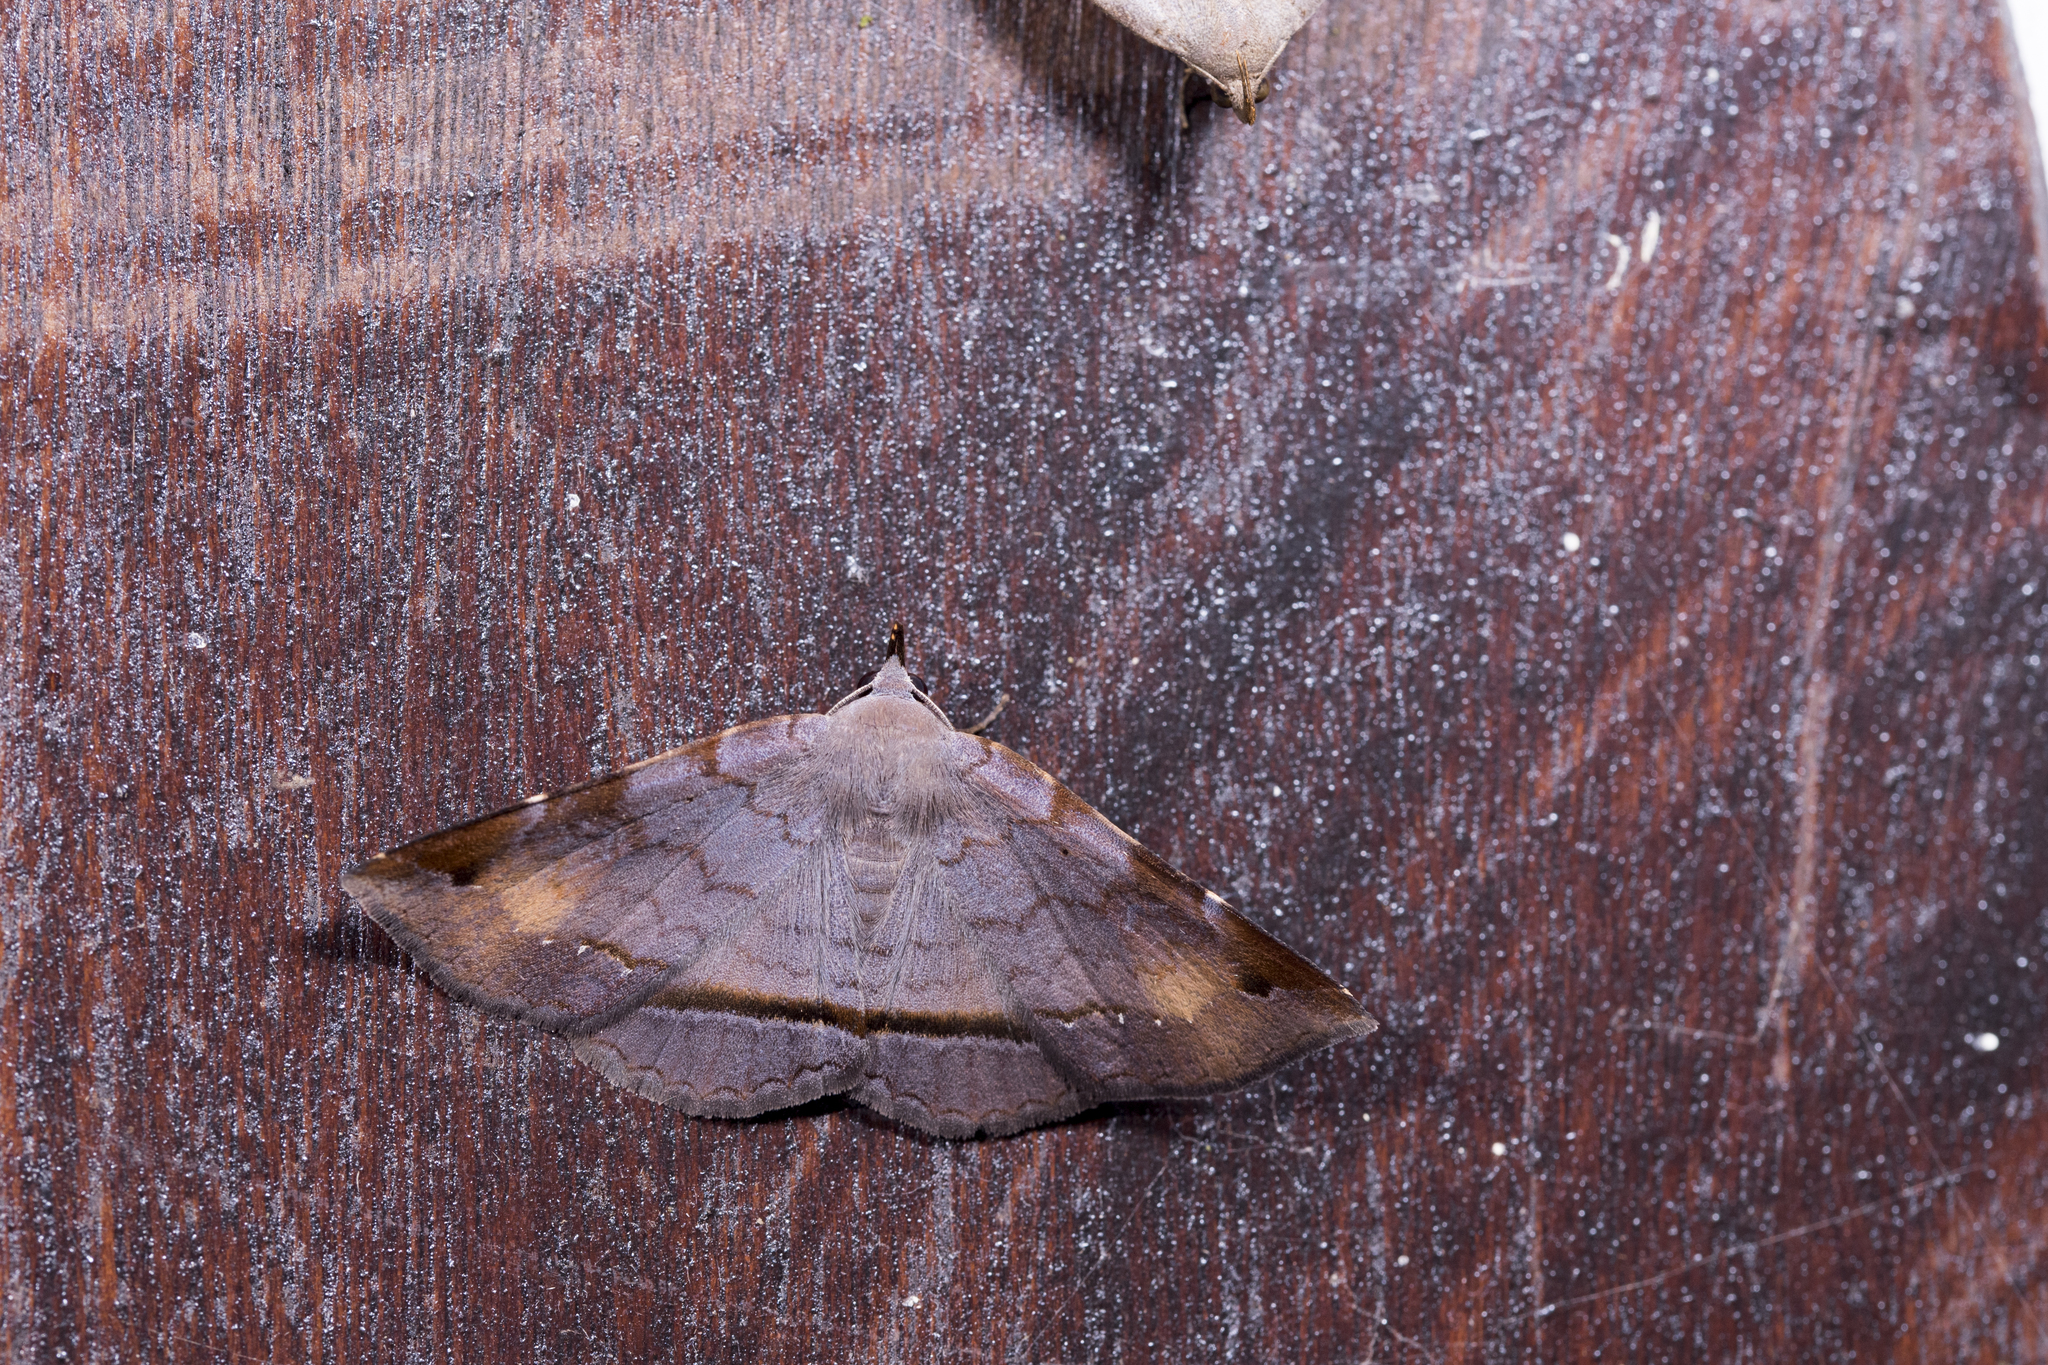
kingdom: Animalia
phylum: Arthropoda
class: Insecta
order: Lepidoptera
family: Erebidae
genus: Mecodina
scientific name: Mecodina subcostalis
